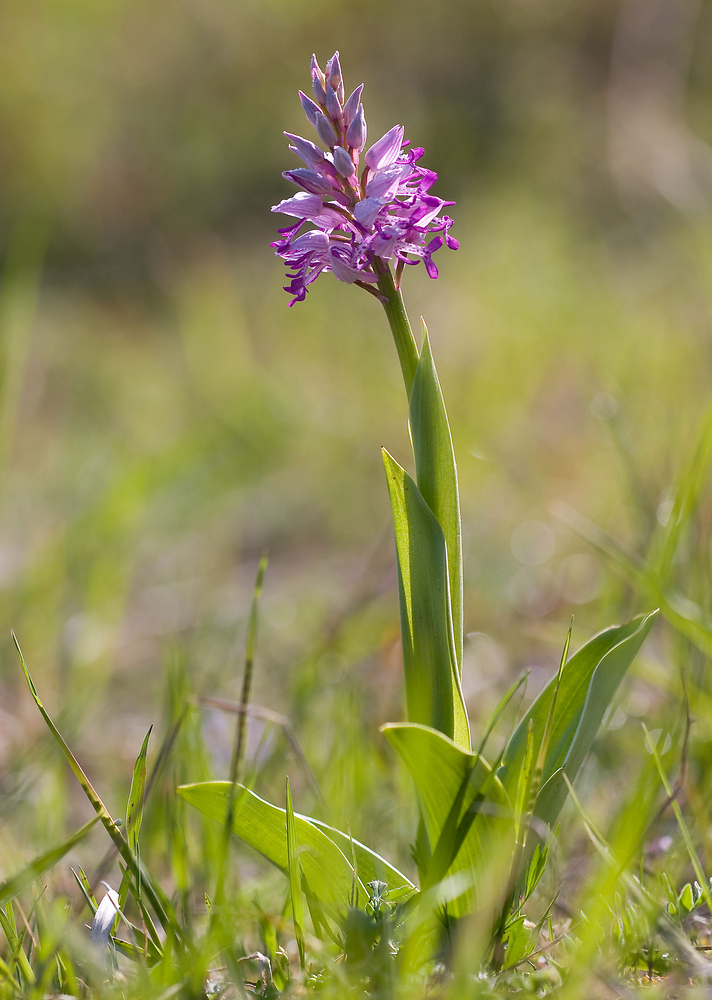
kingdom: Plantae
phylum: Tracheophyta
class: Liliopsida
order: Asparagales
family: Orchidaceae
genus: Orchis
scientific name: Orchis militaris
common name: Military orchid
